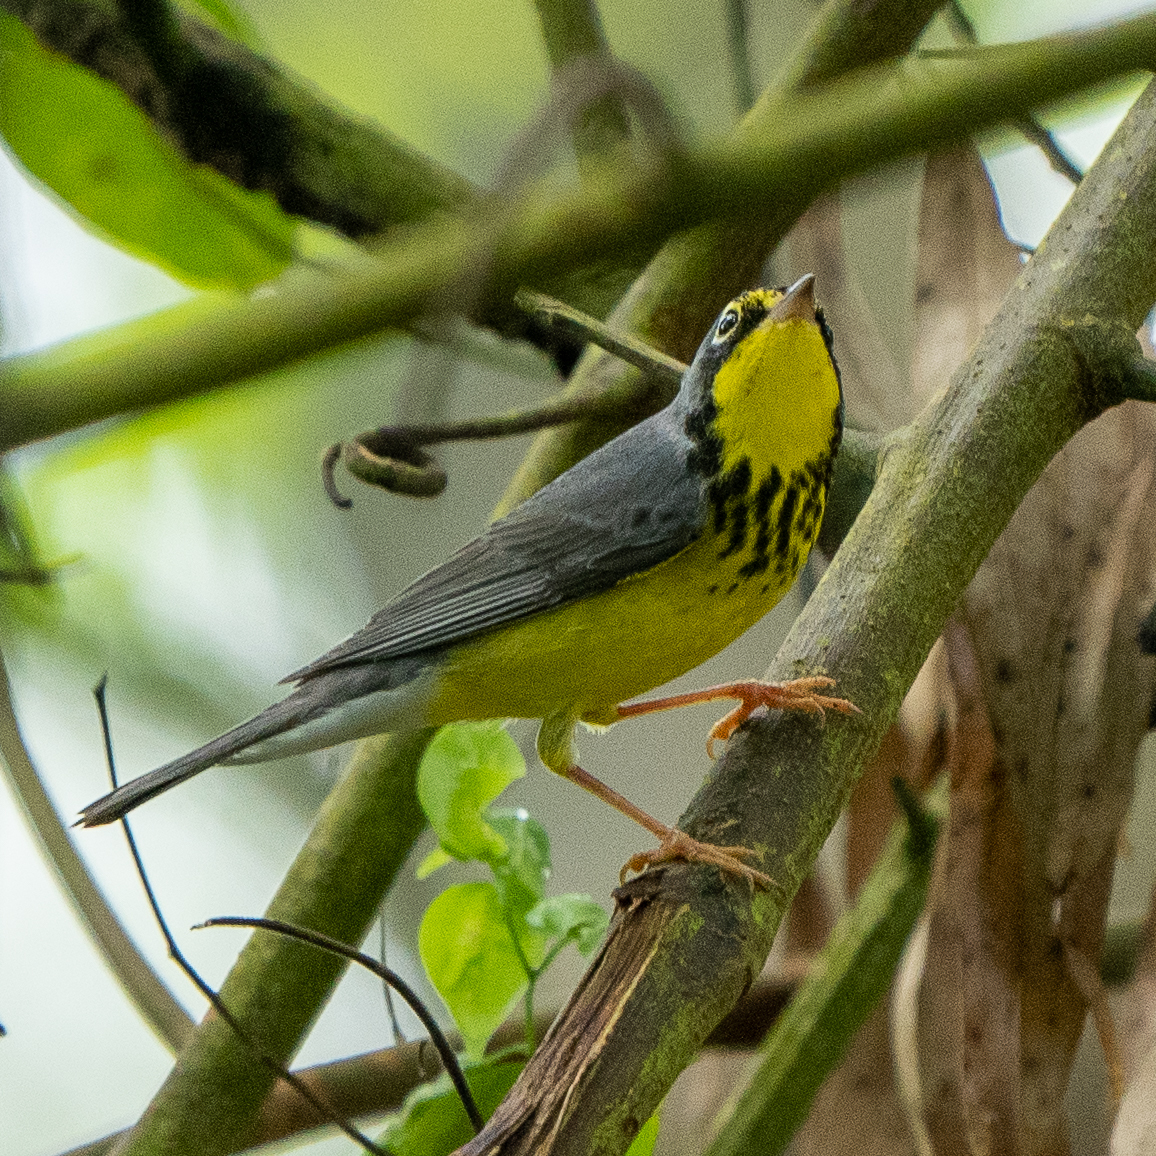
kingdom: Animalia
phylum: Chordata
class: Aves
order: Passeriformes
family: Parulidae
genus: Cardellina
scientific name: Cardellina canadensis
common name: Canada warbler
